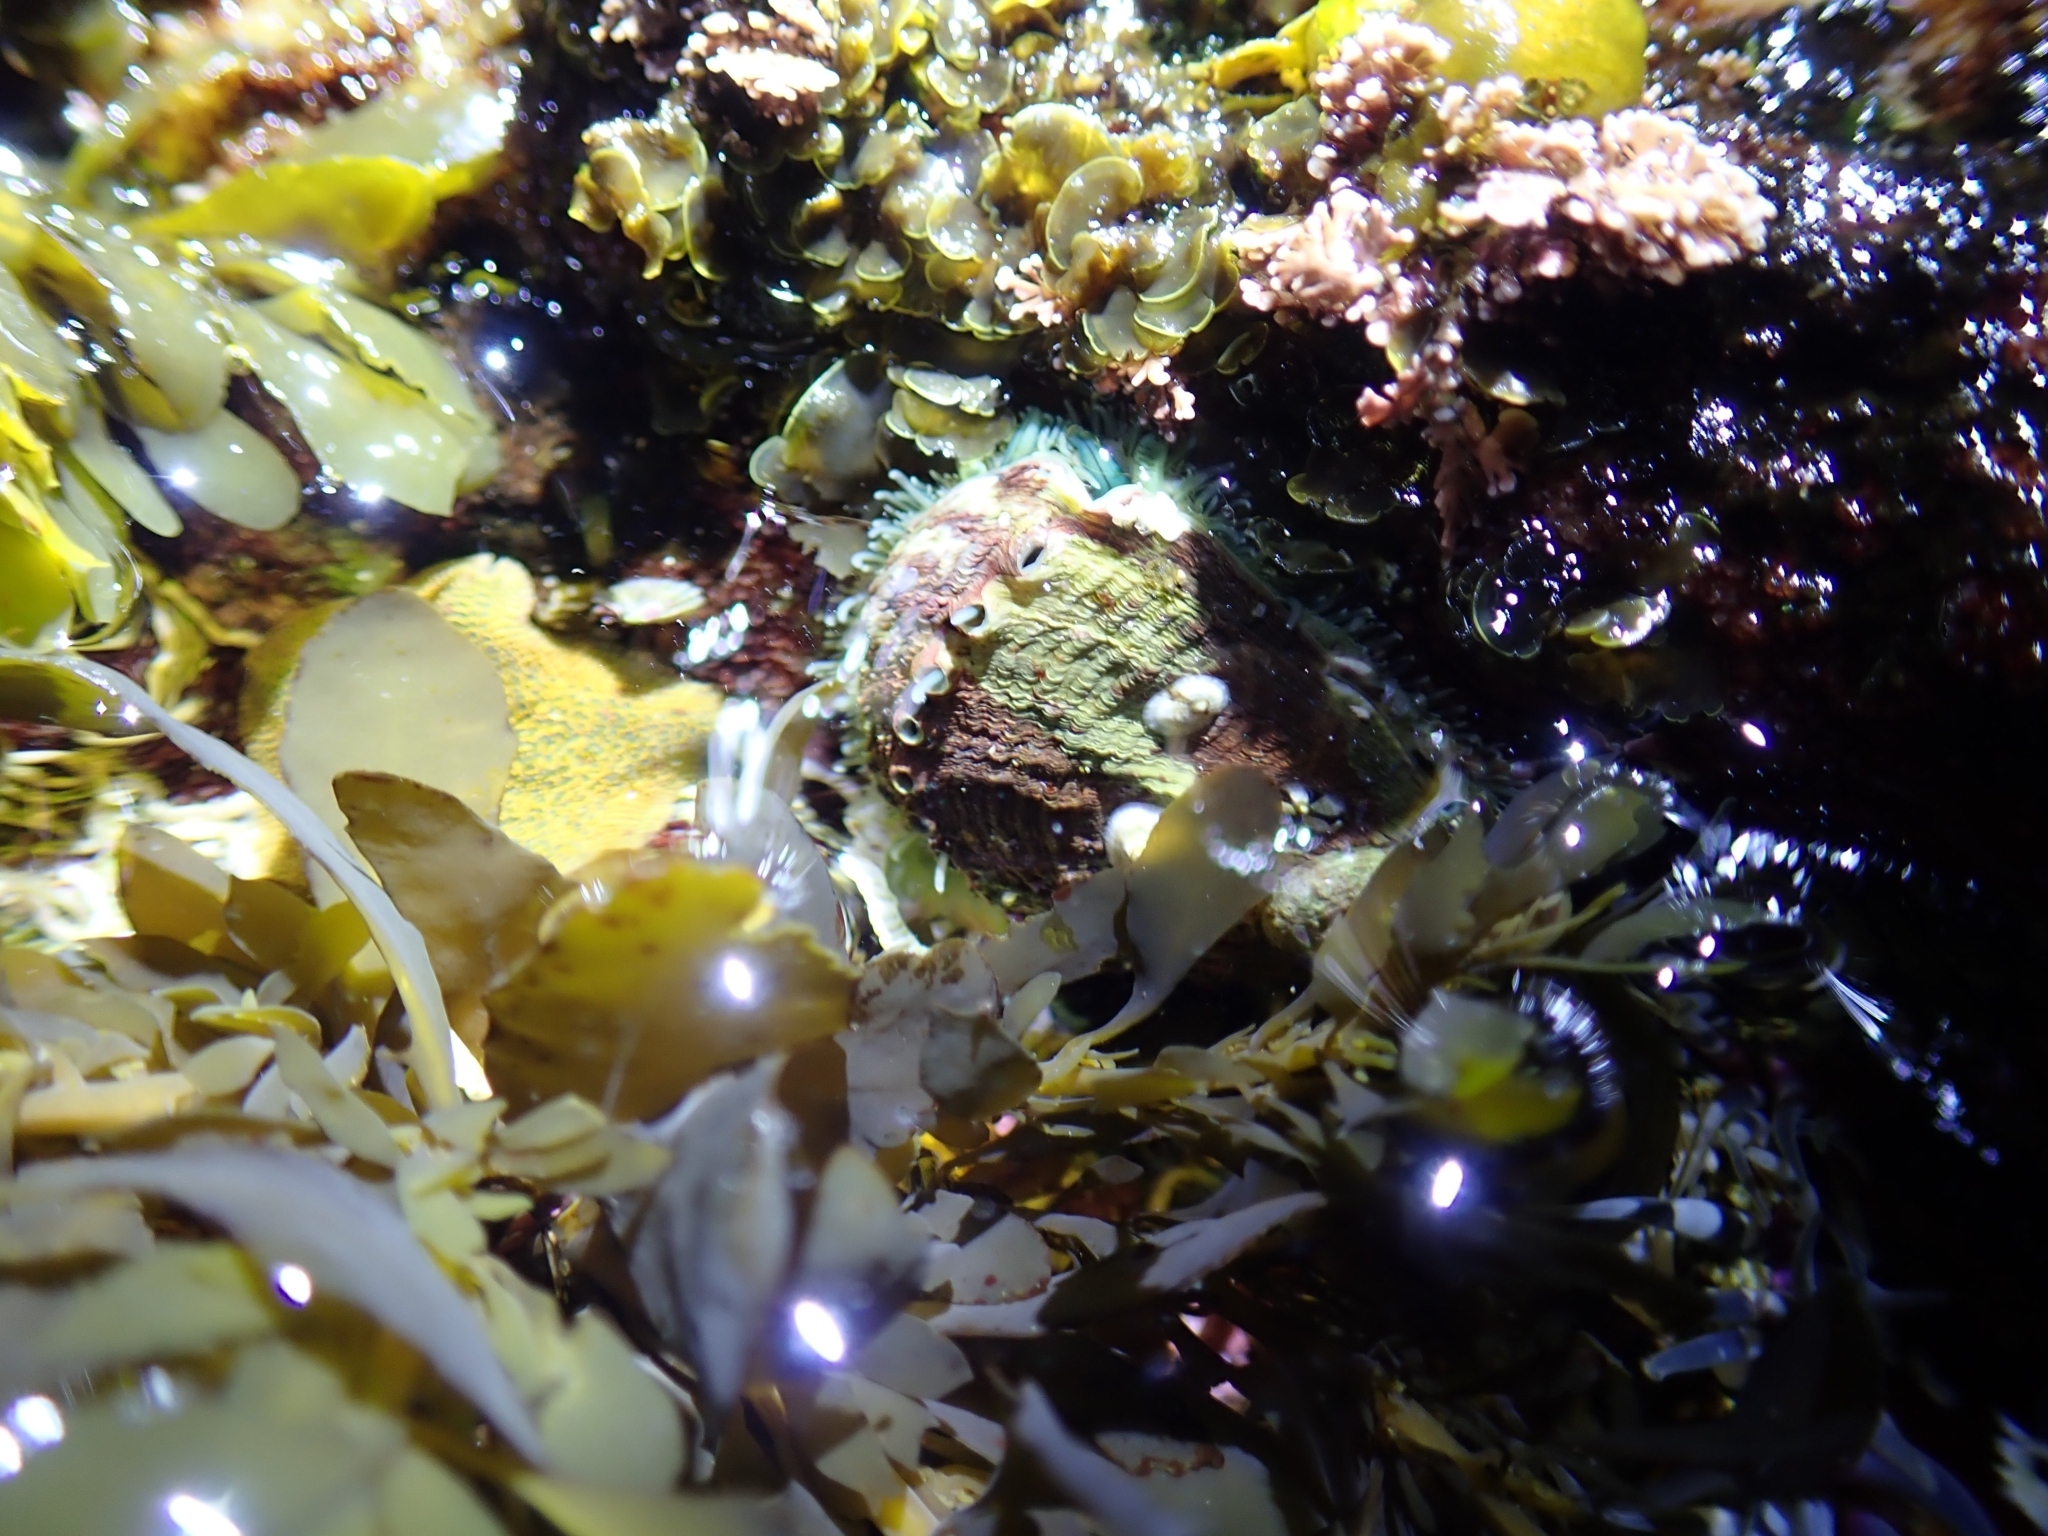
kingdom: Animalia
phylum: Mollusca
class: Gastropoda
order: Lepetellida
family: Haliotidae
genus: Haliotis
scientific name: Haliotis coccoradiata
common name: Reddish-rayed abalone
